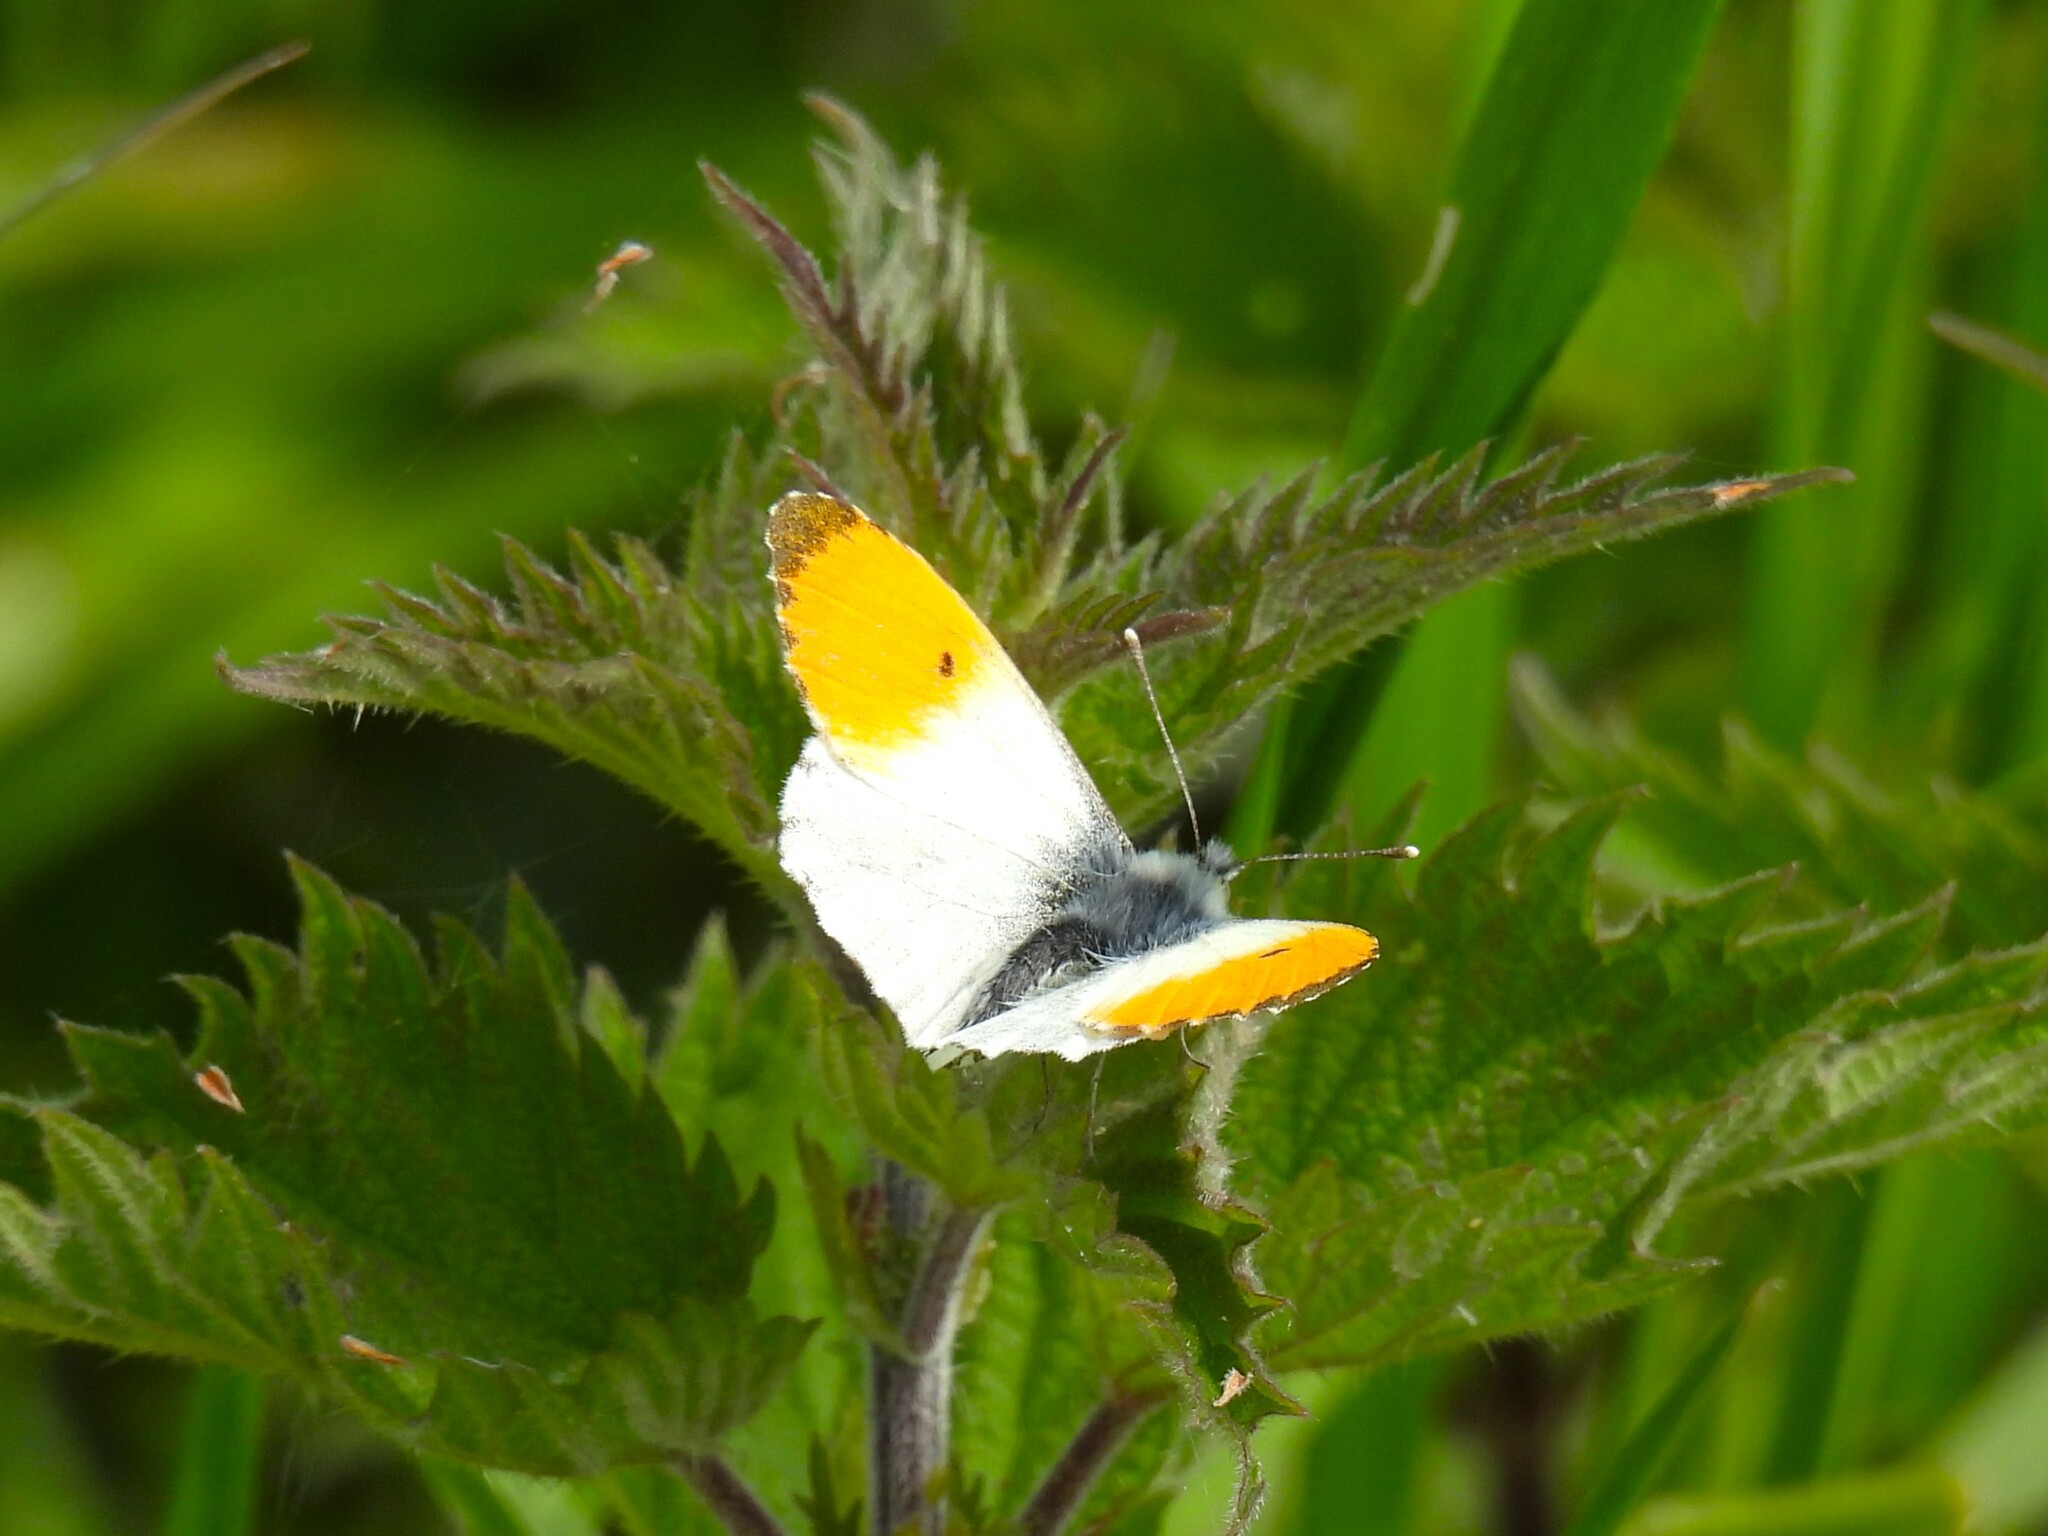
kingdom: Animalia
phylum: Arthropoda
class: Insecta
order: Lepidoptera
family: Pieridae
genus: Anthocharis
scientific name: Anthocharis cardamines
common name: Orange-tip
